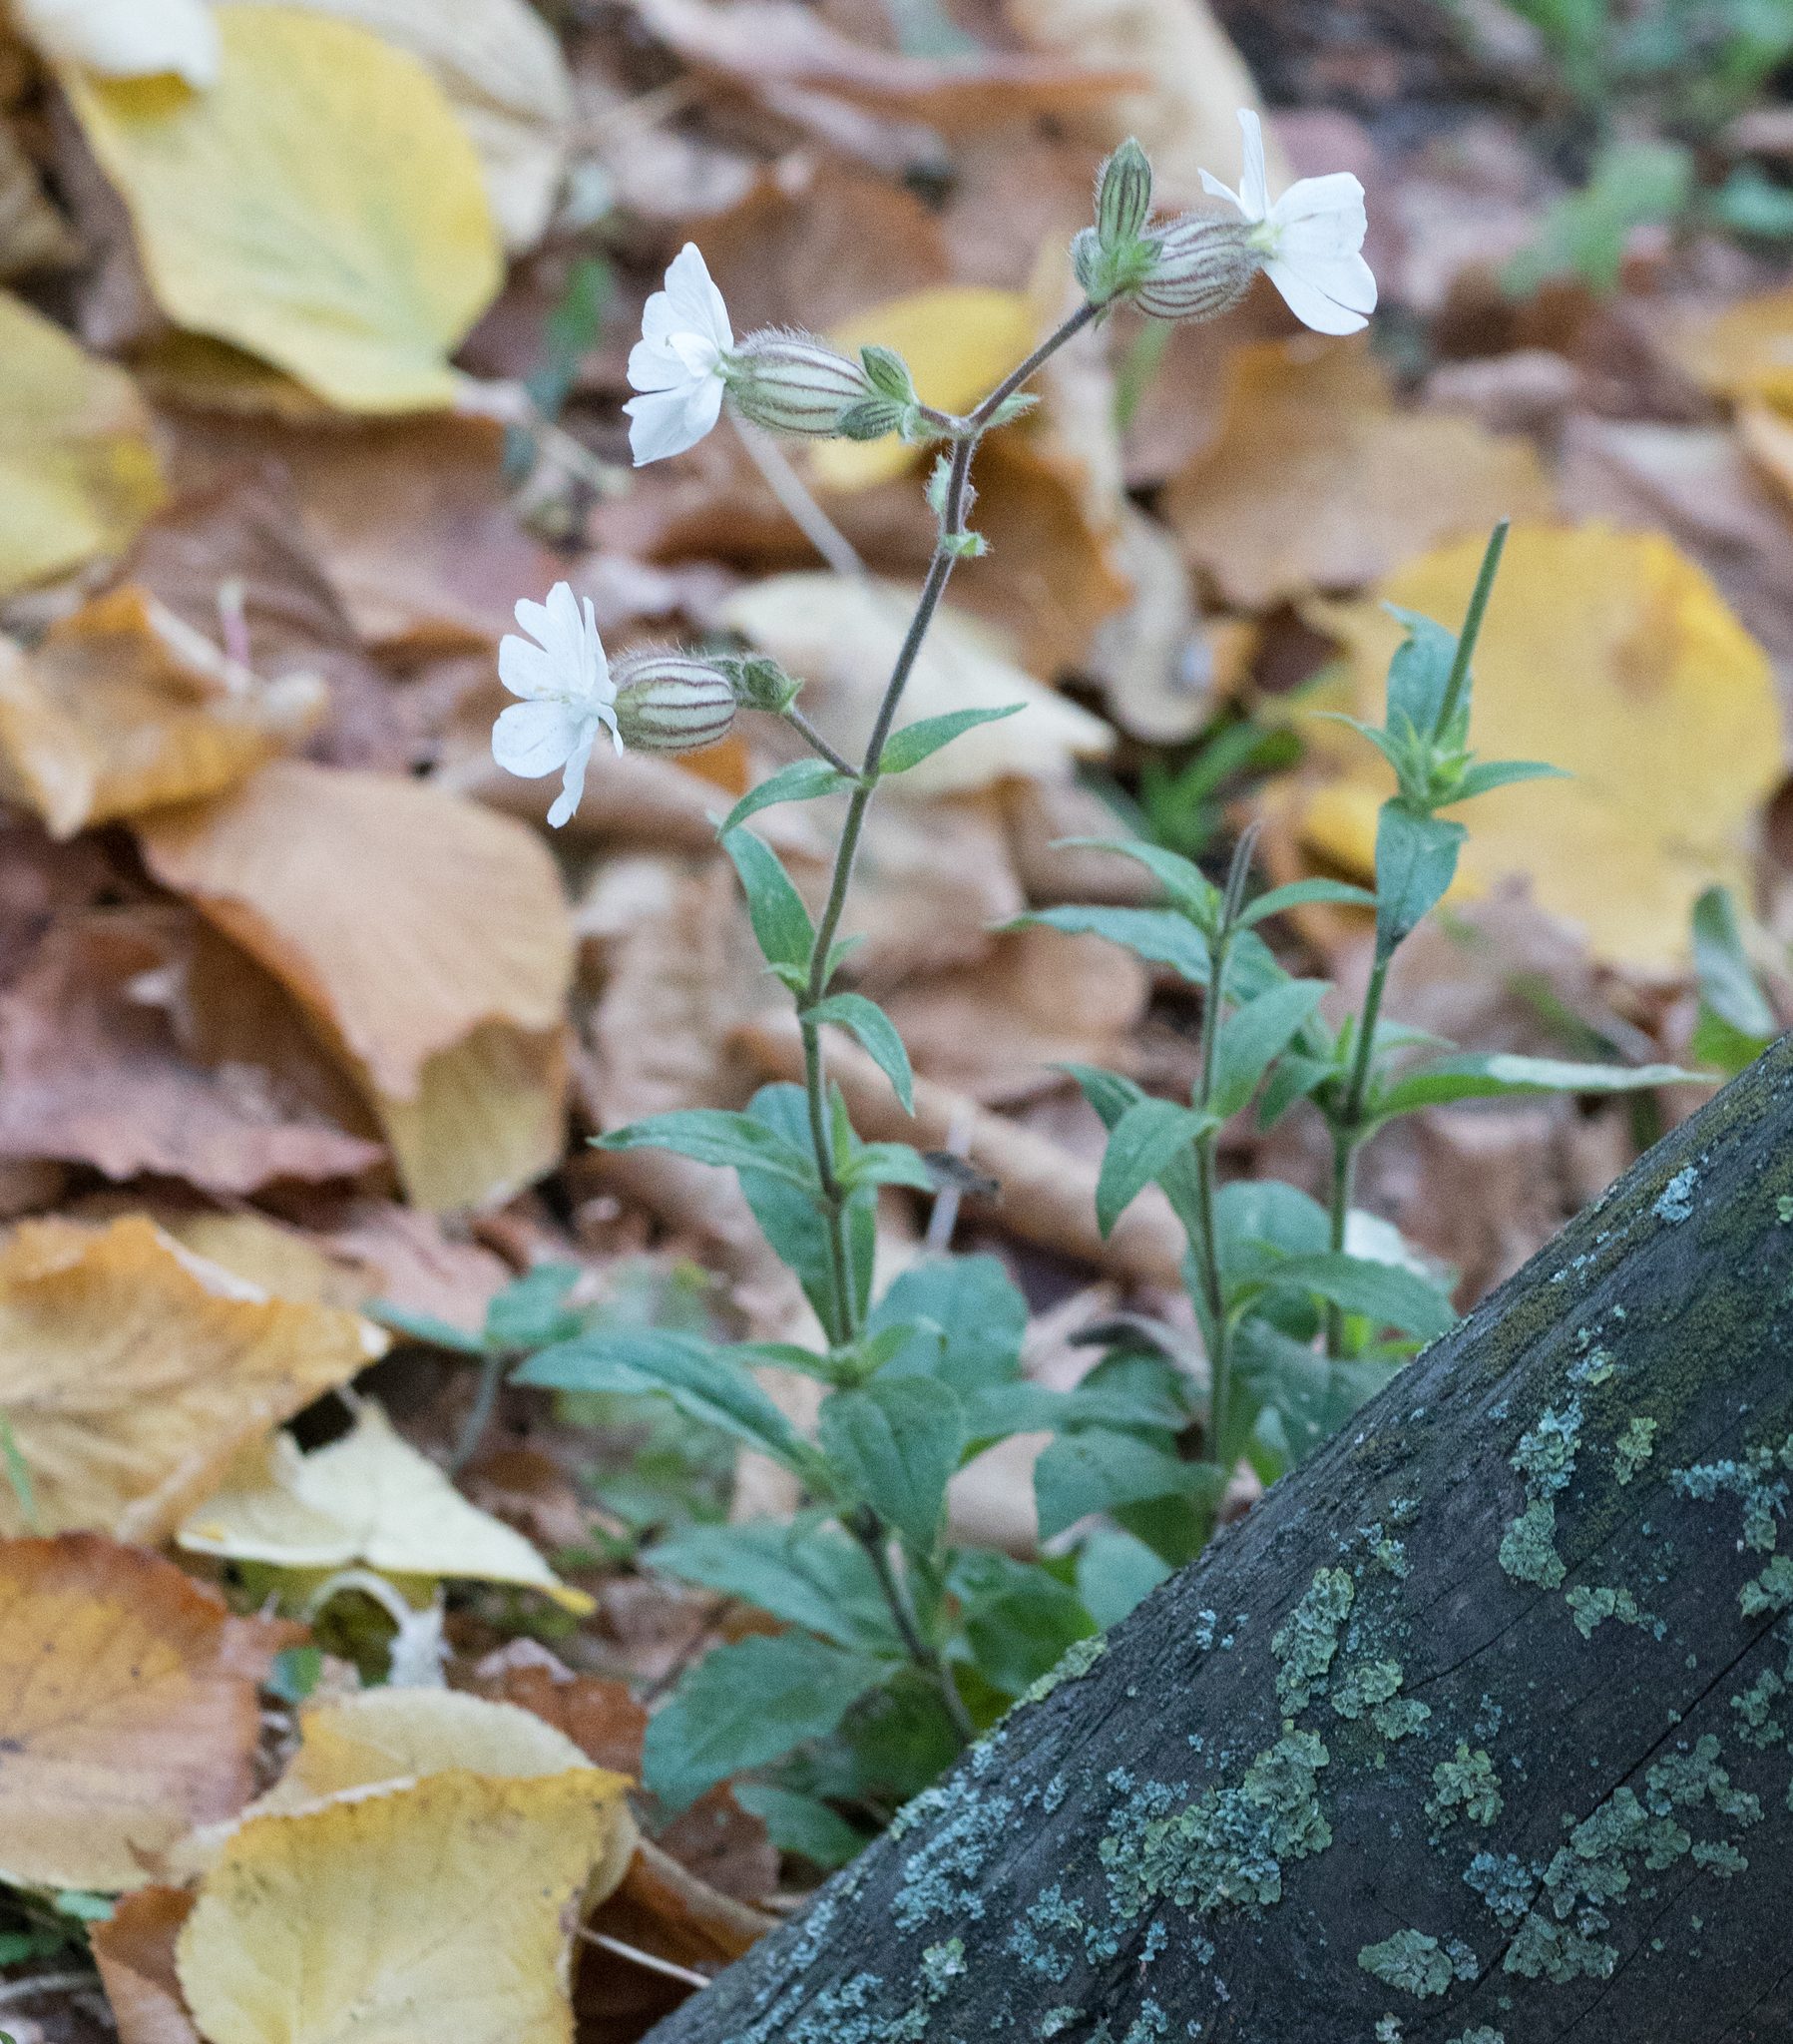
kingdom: Plantae
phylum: Tracheophyta
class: Magnoliopsida
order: Caryophyllales
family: Caryophyllaceae
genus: Silene
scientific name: Silene latifolia
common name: White campion
